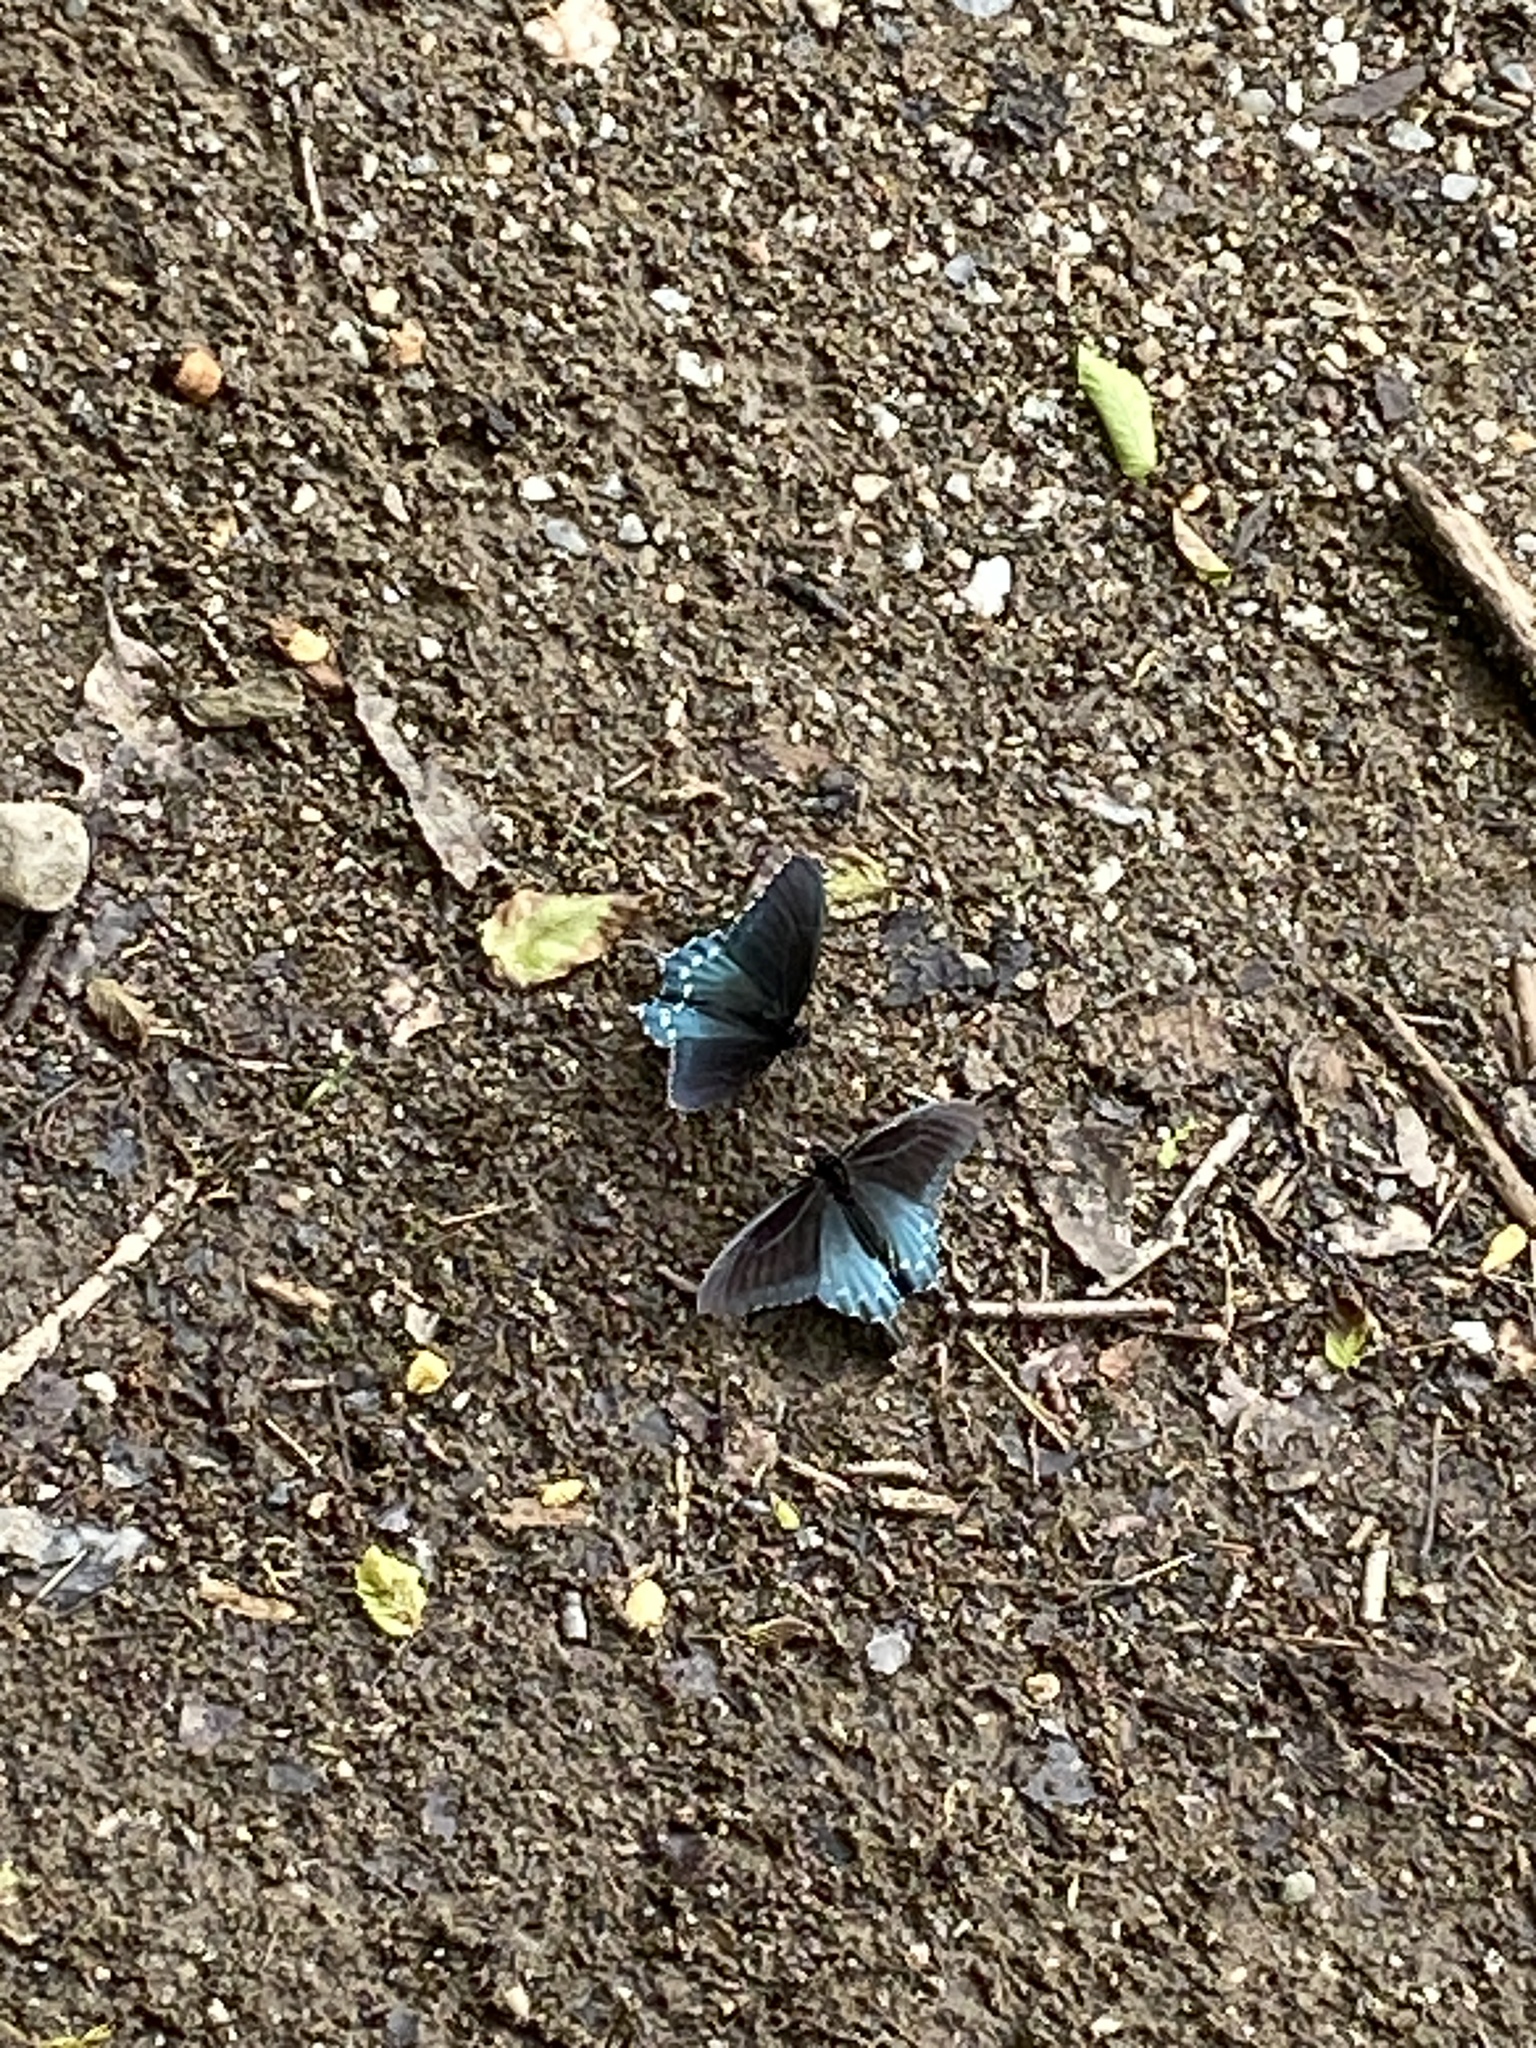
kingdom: Animalia
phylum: Arthropoda
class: Insecta
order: Lepidoptera
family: Papilionidae
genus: Battus
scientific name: Battus philenor
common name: Pipevine swallowtail
